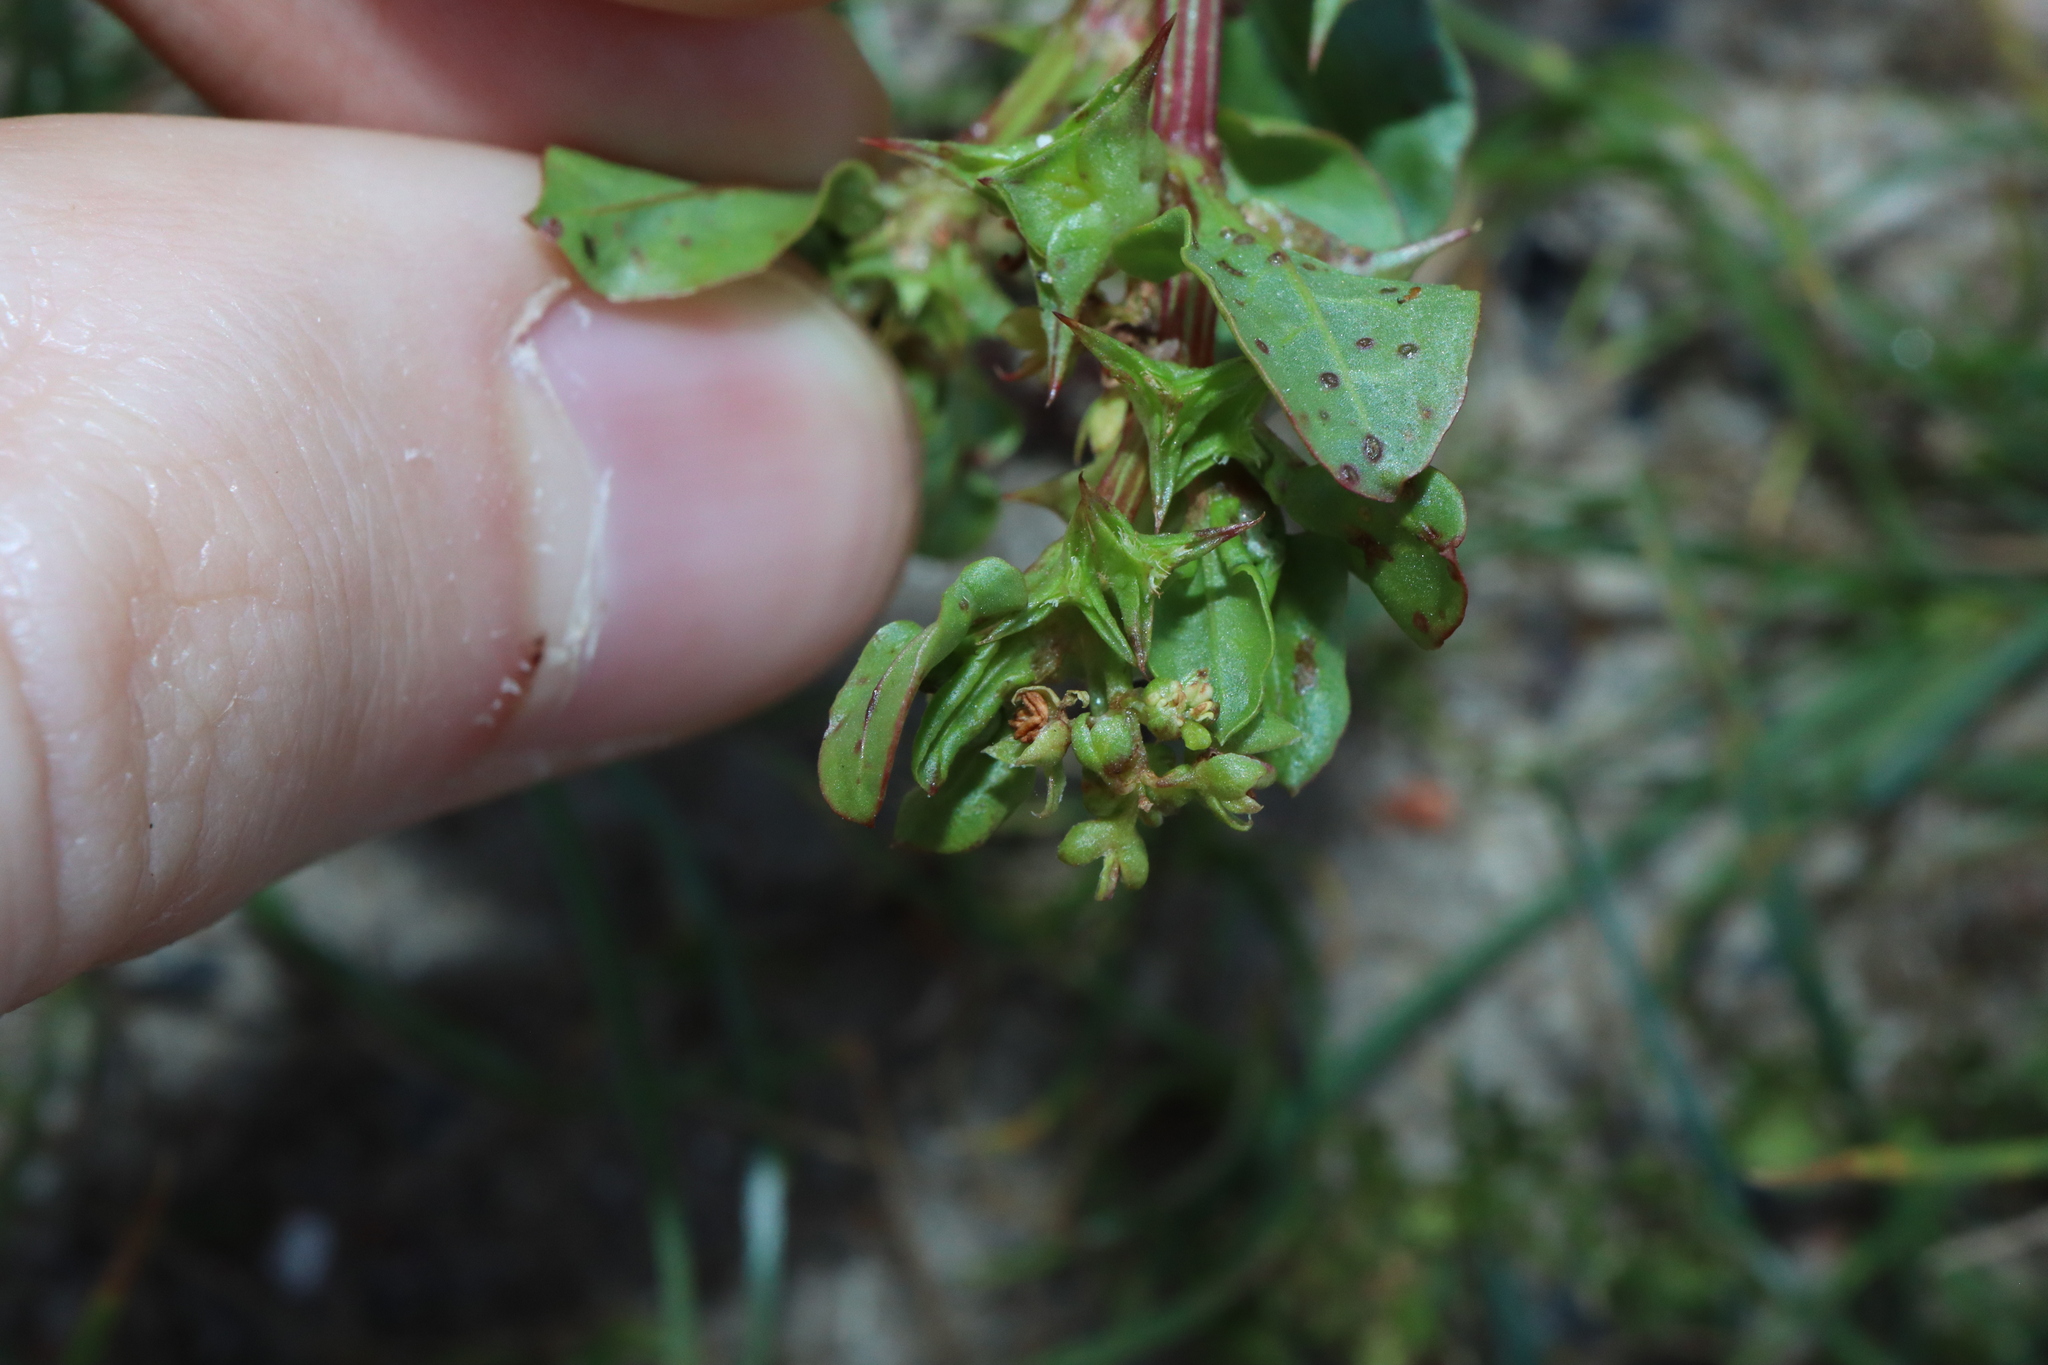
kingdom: Plantae
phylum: Tracheophyta
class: Magnoliopsida
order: Caryophyllales
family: Polygonaceae
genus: Rumex
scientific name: Rumex hypogaeus
